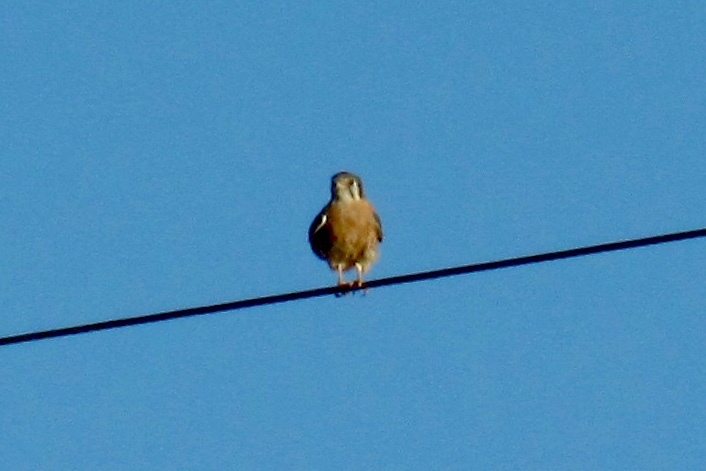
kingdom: Animalia
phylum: Chordata
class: Aves
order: Falconiformes
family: Falconidae
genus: Falco
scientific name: Falco sparverius
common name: American kestrel
